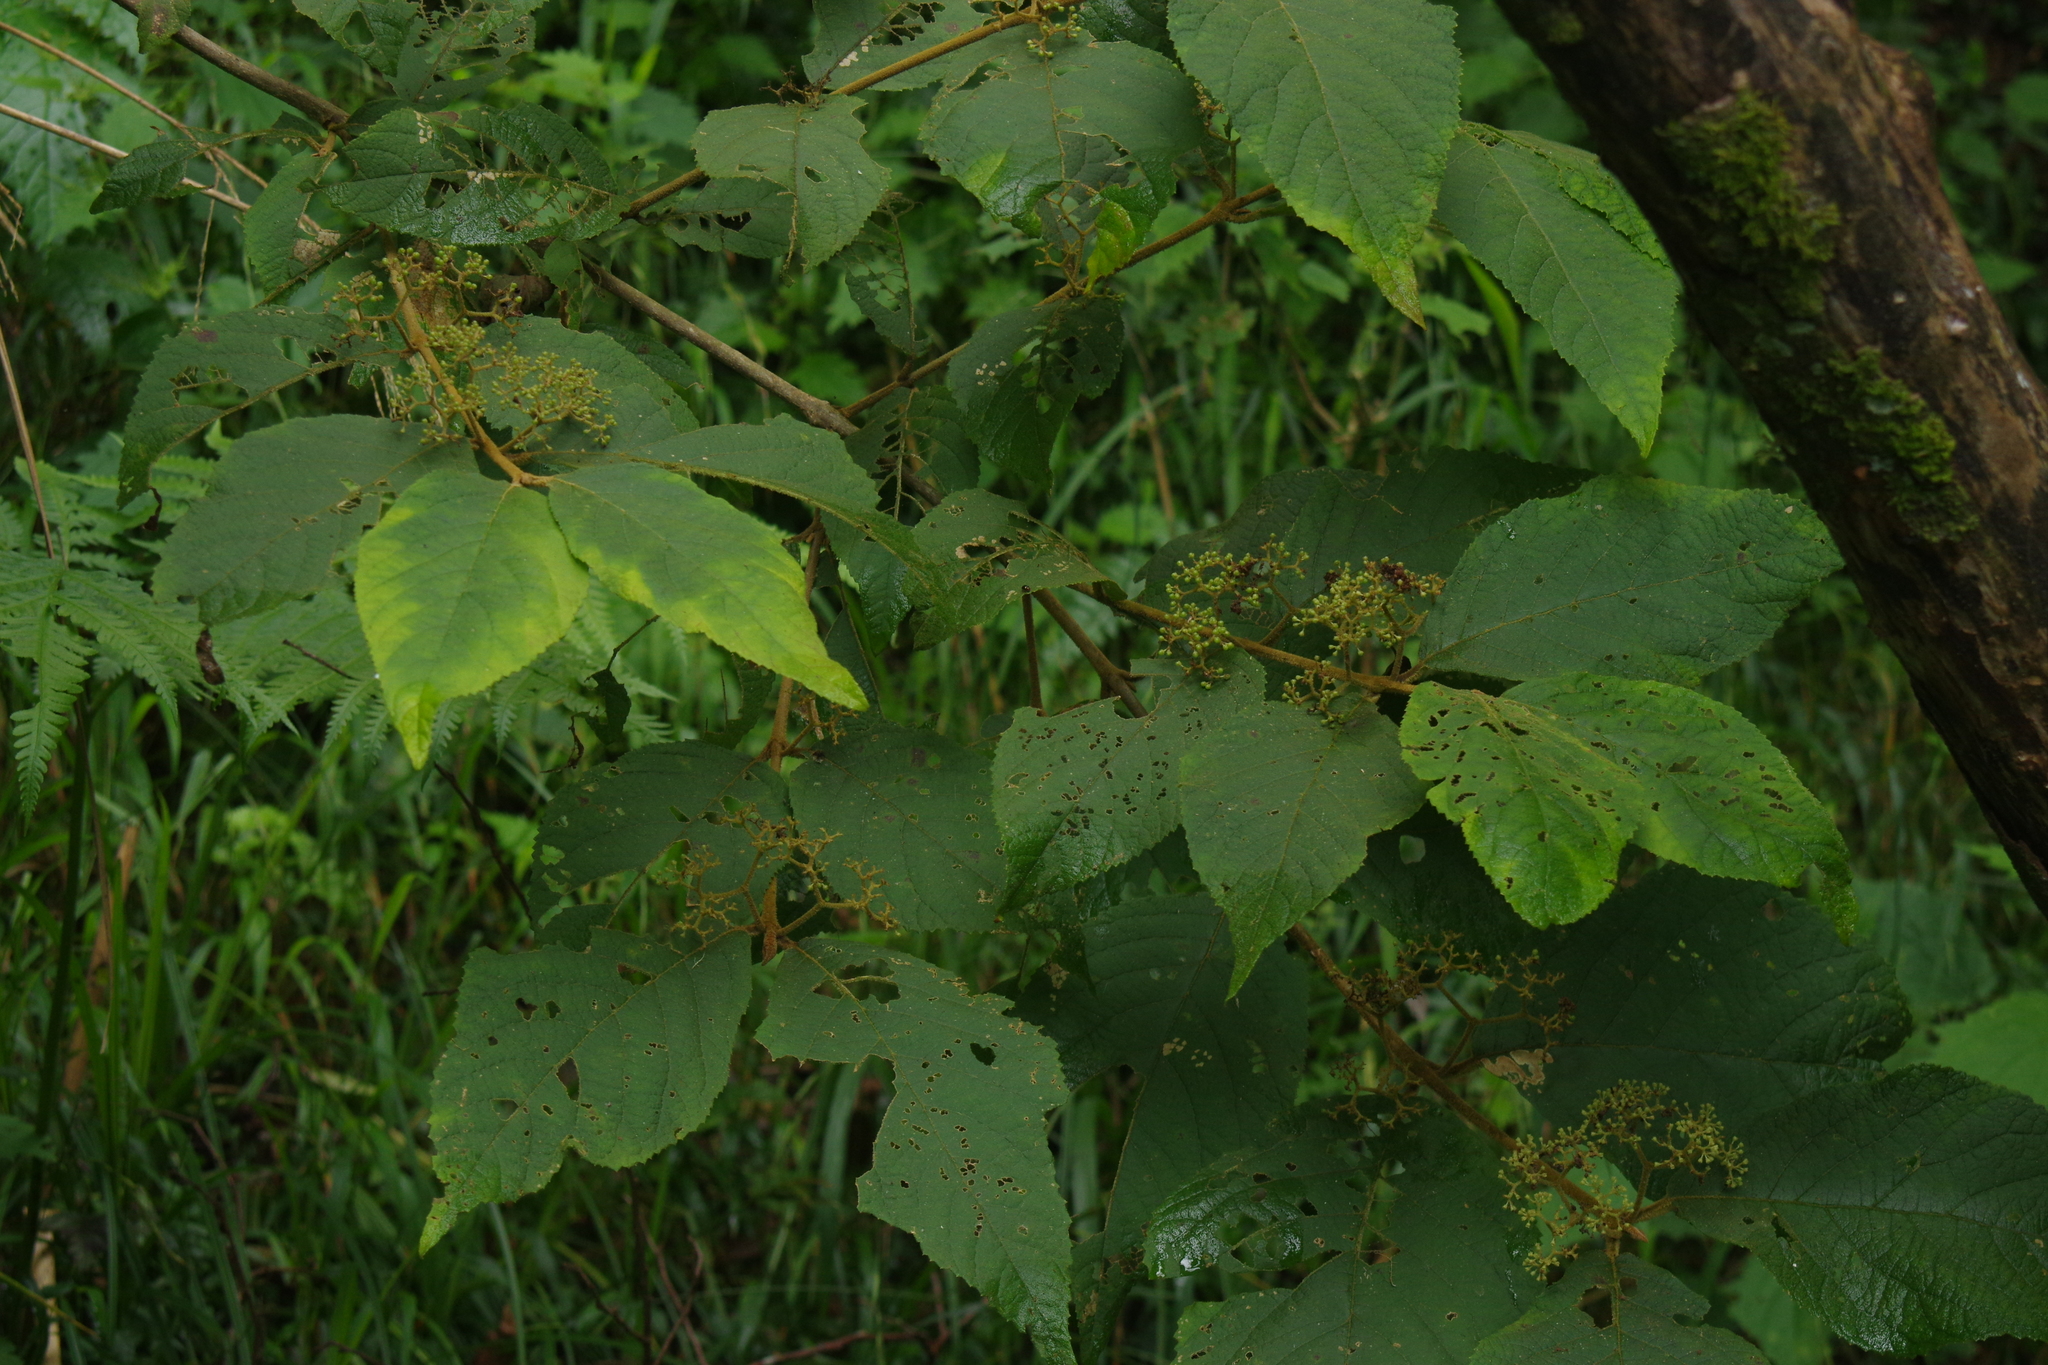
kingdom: Plantae
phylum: Tracheophyta
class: Magnoliopsida
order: Lamiales
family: Lamiaceae
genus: Callicarpa
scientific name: Callicarpa pedunculata
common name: Velvetleaf
